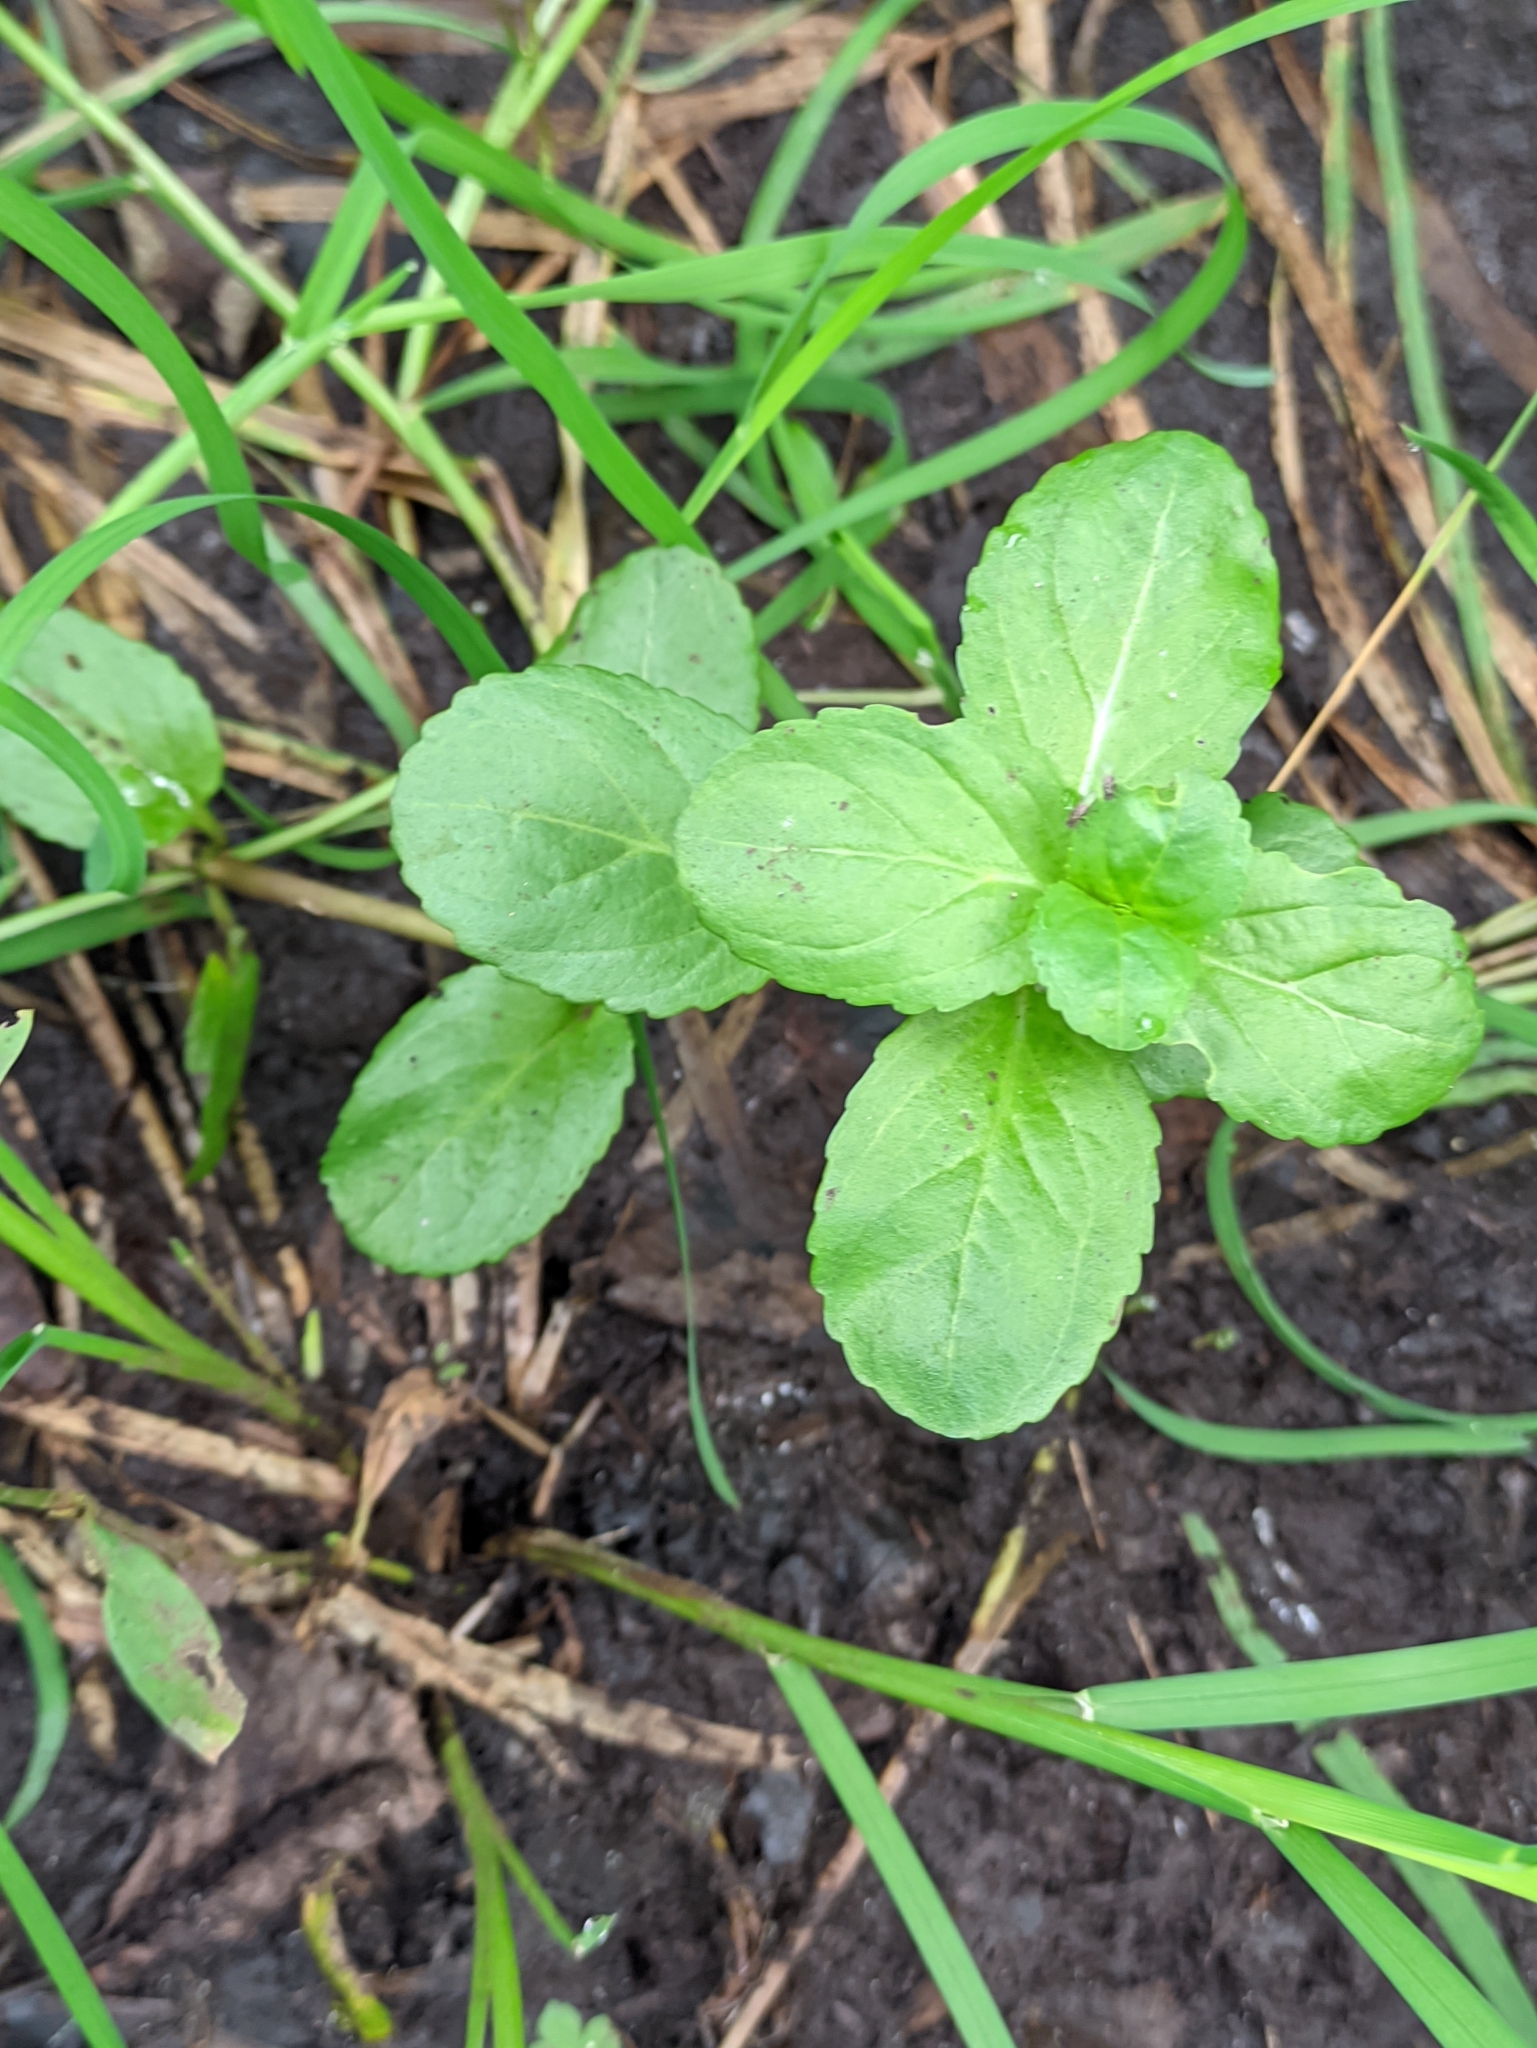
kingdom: Plantae
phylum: Tracheophyta
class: Magnoliopsida
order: Lamiales
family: Plantaginaceae
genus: Veronica
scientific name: Veronica beccabunga
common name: Brooklime
